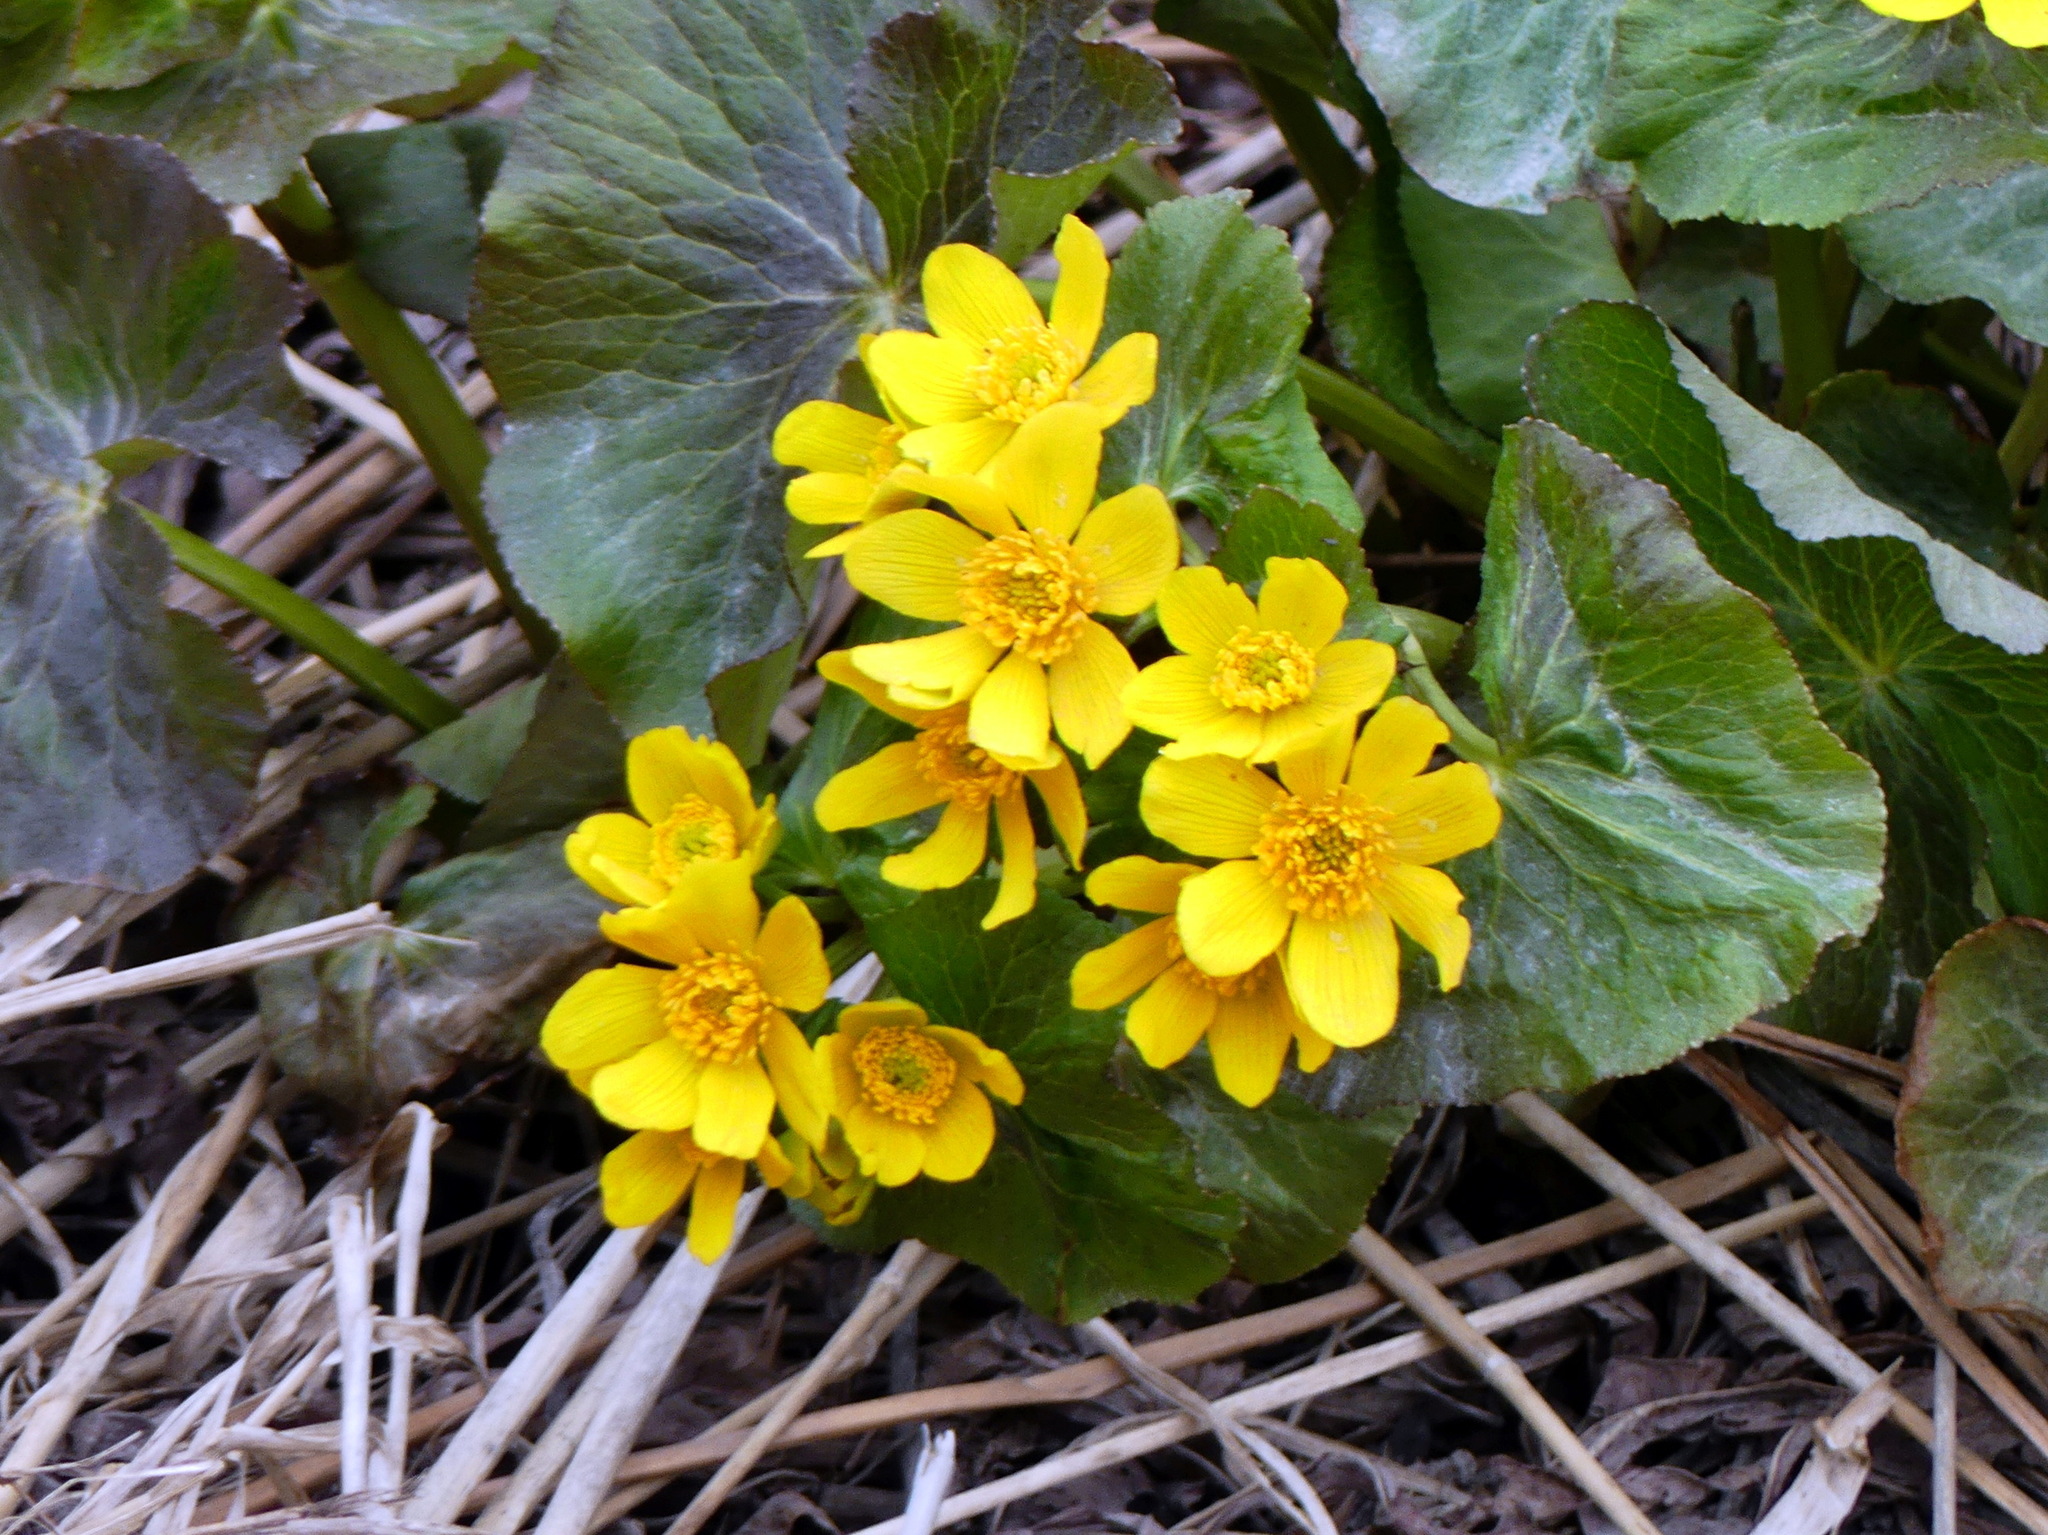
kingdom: Plantae
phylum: Tracheophyta
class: Magnoliopsida
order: Ranunculales
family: Ranunculaceae
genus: Caltha
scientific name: Caltha palustris
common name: Marsh marigold
